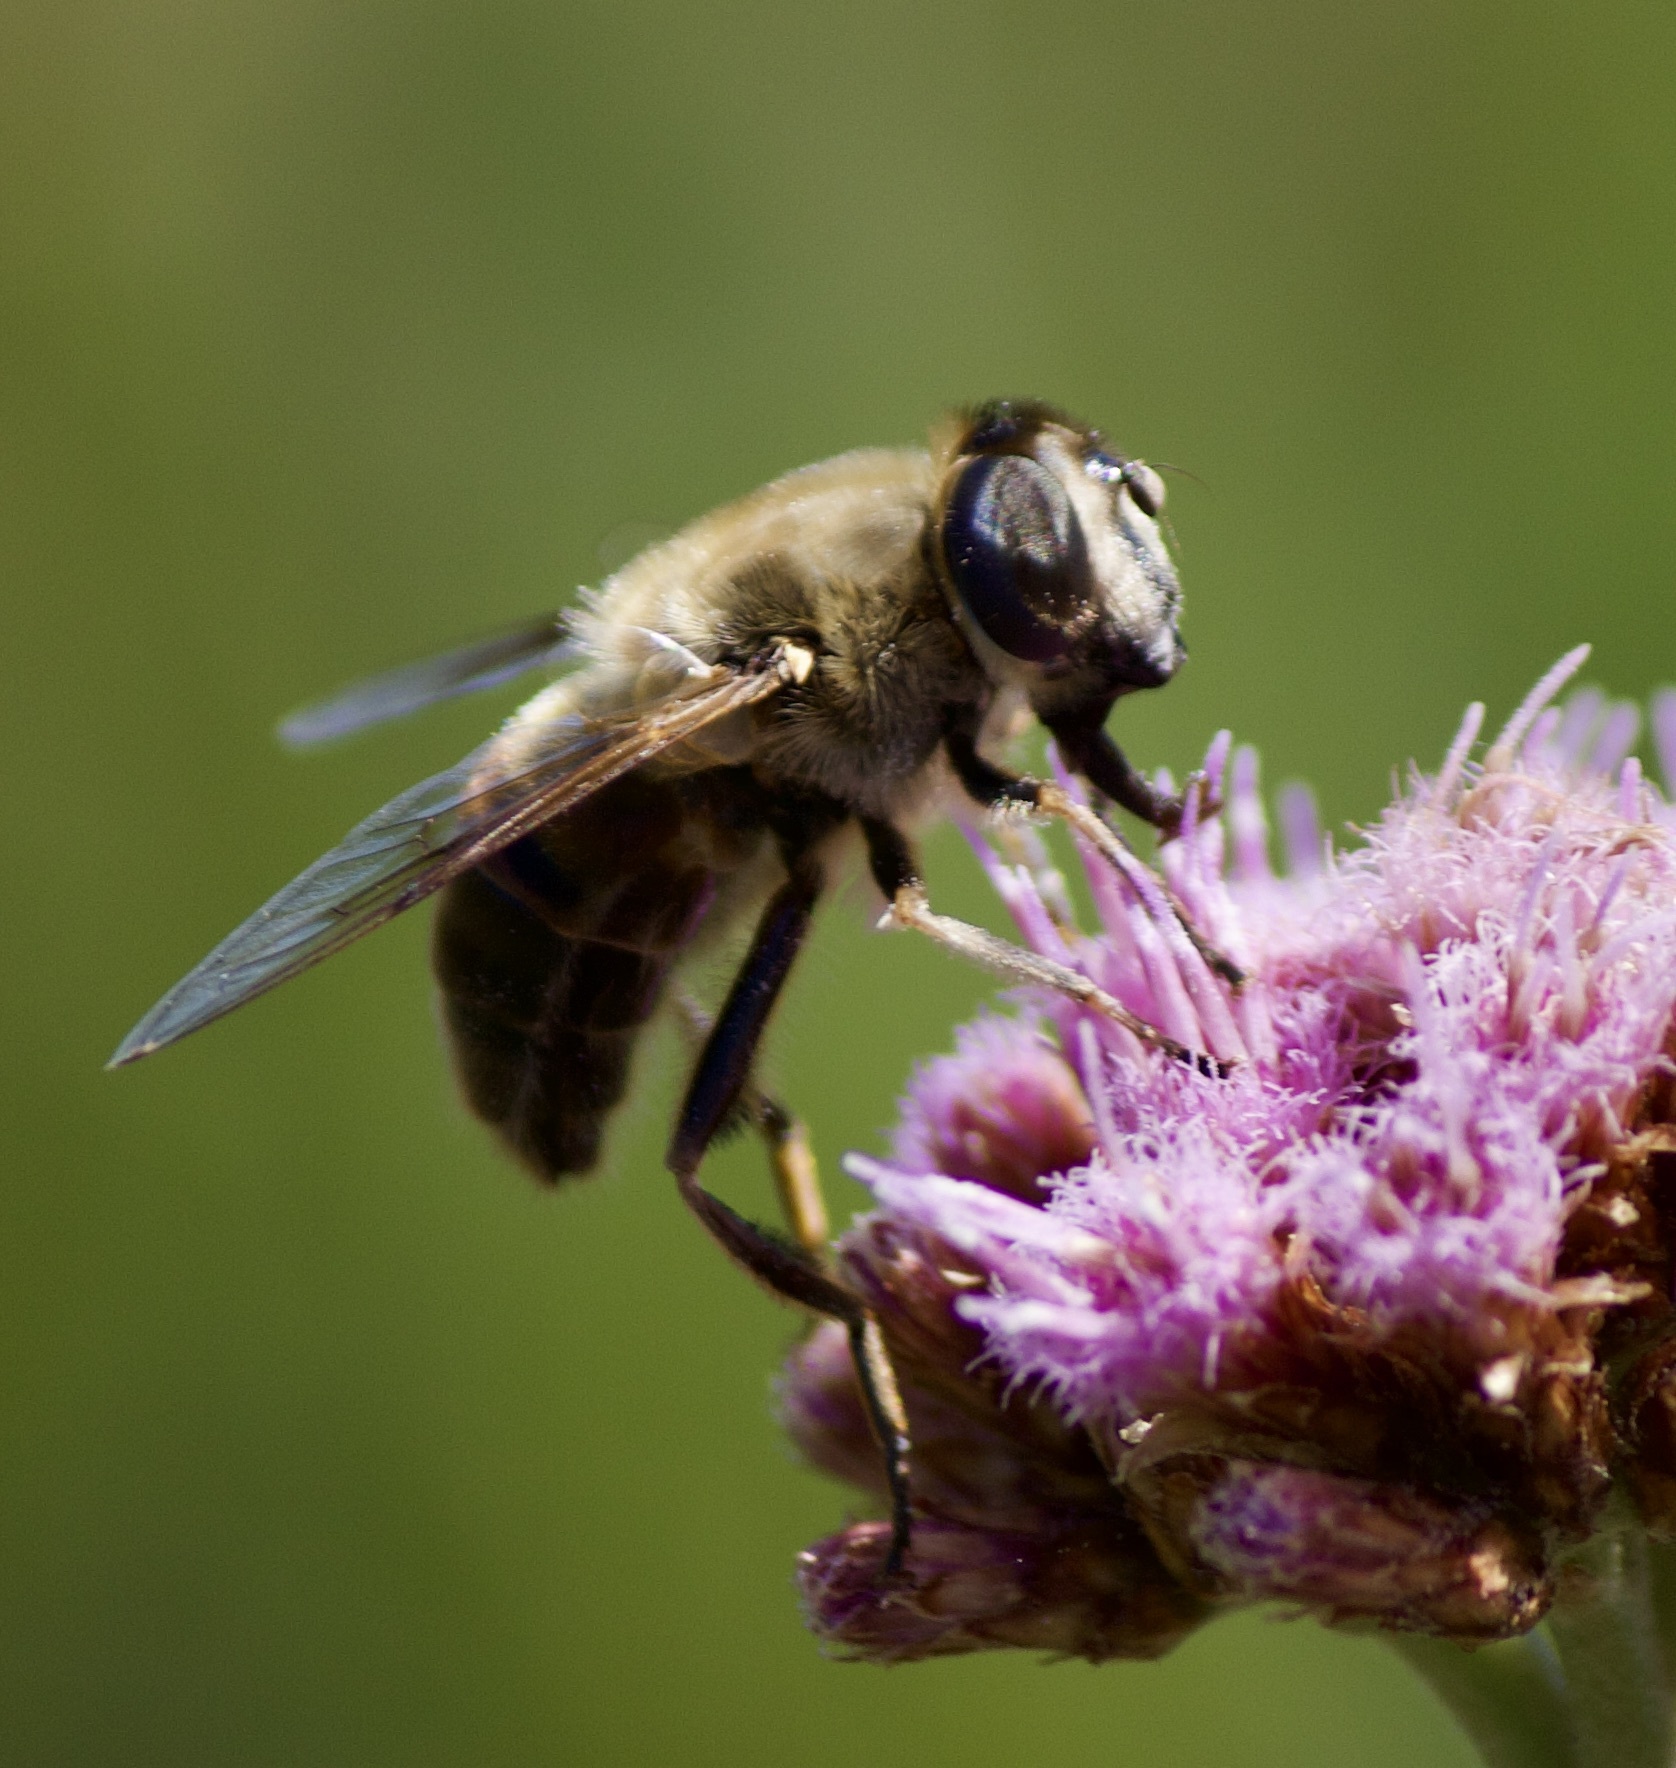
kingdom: Animalia
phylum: Arthropoda
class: Insecta
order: Diptera
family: Syrphidae
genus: Eristalis
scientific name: Eristalis tenax
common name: Drone fly
